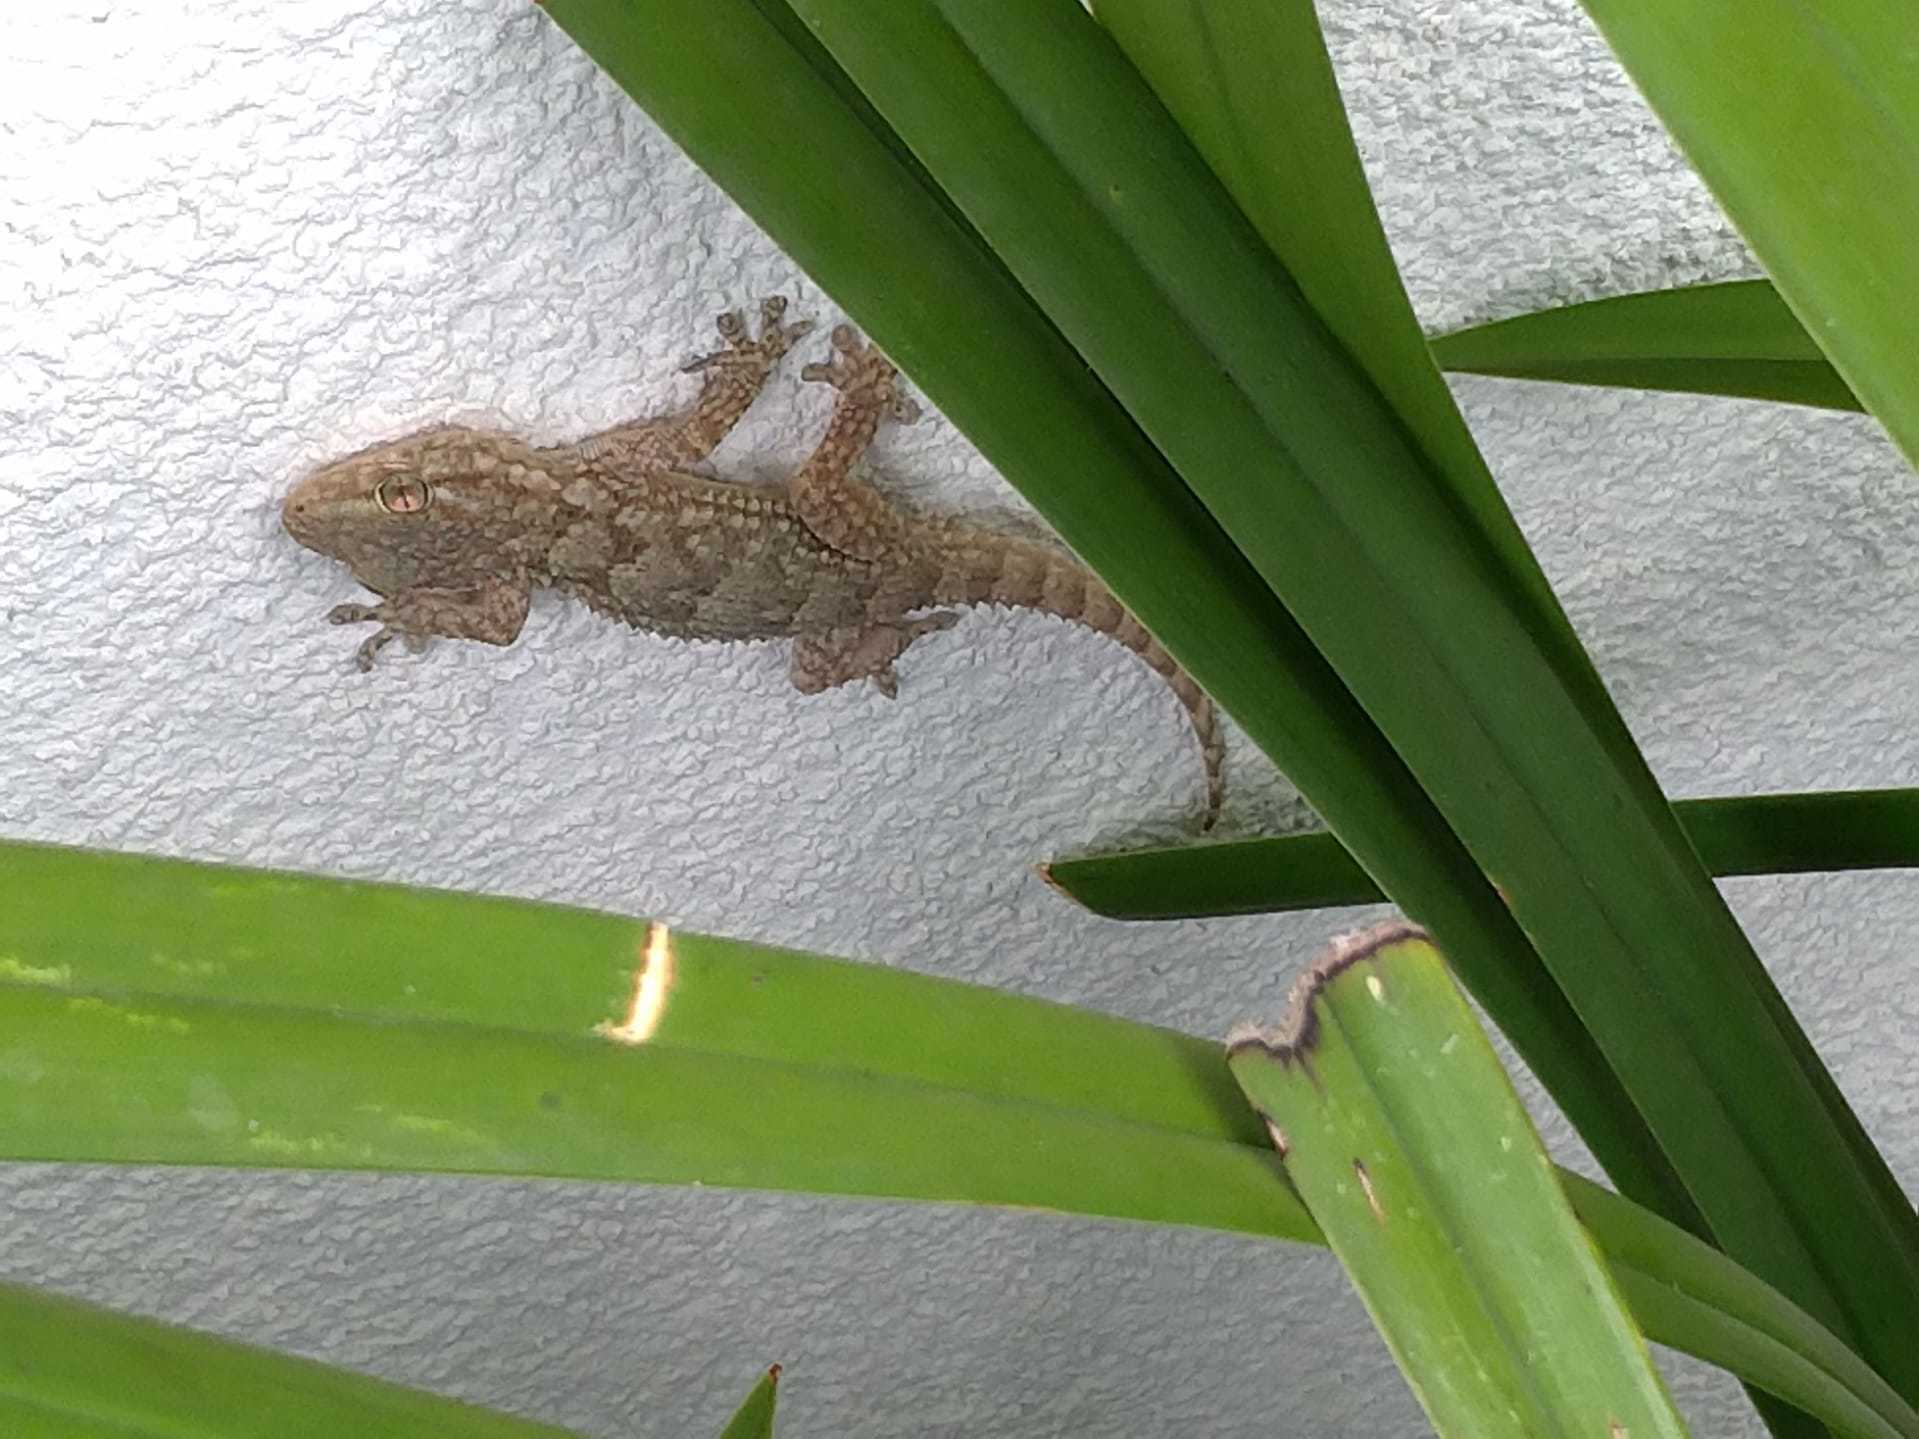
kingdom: Animalia
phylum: Chordata
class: Squamata
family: Phyllodactylidae
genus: Tarentola
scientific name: Tarentola mauritanica
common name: Moorish gecko
